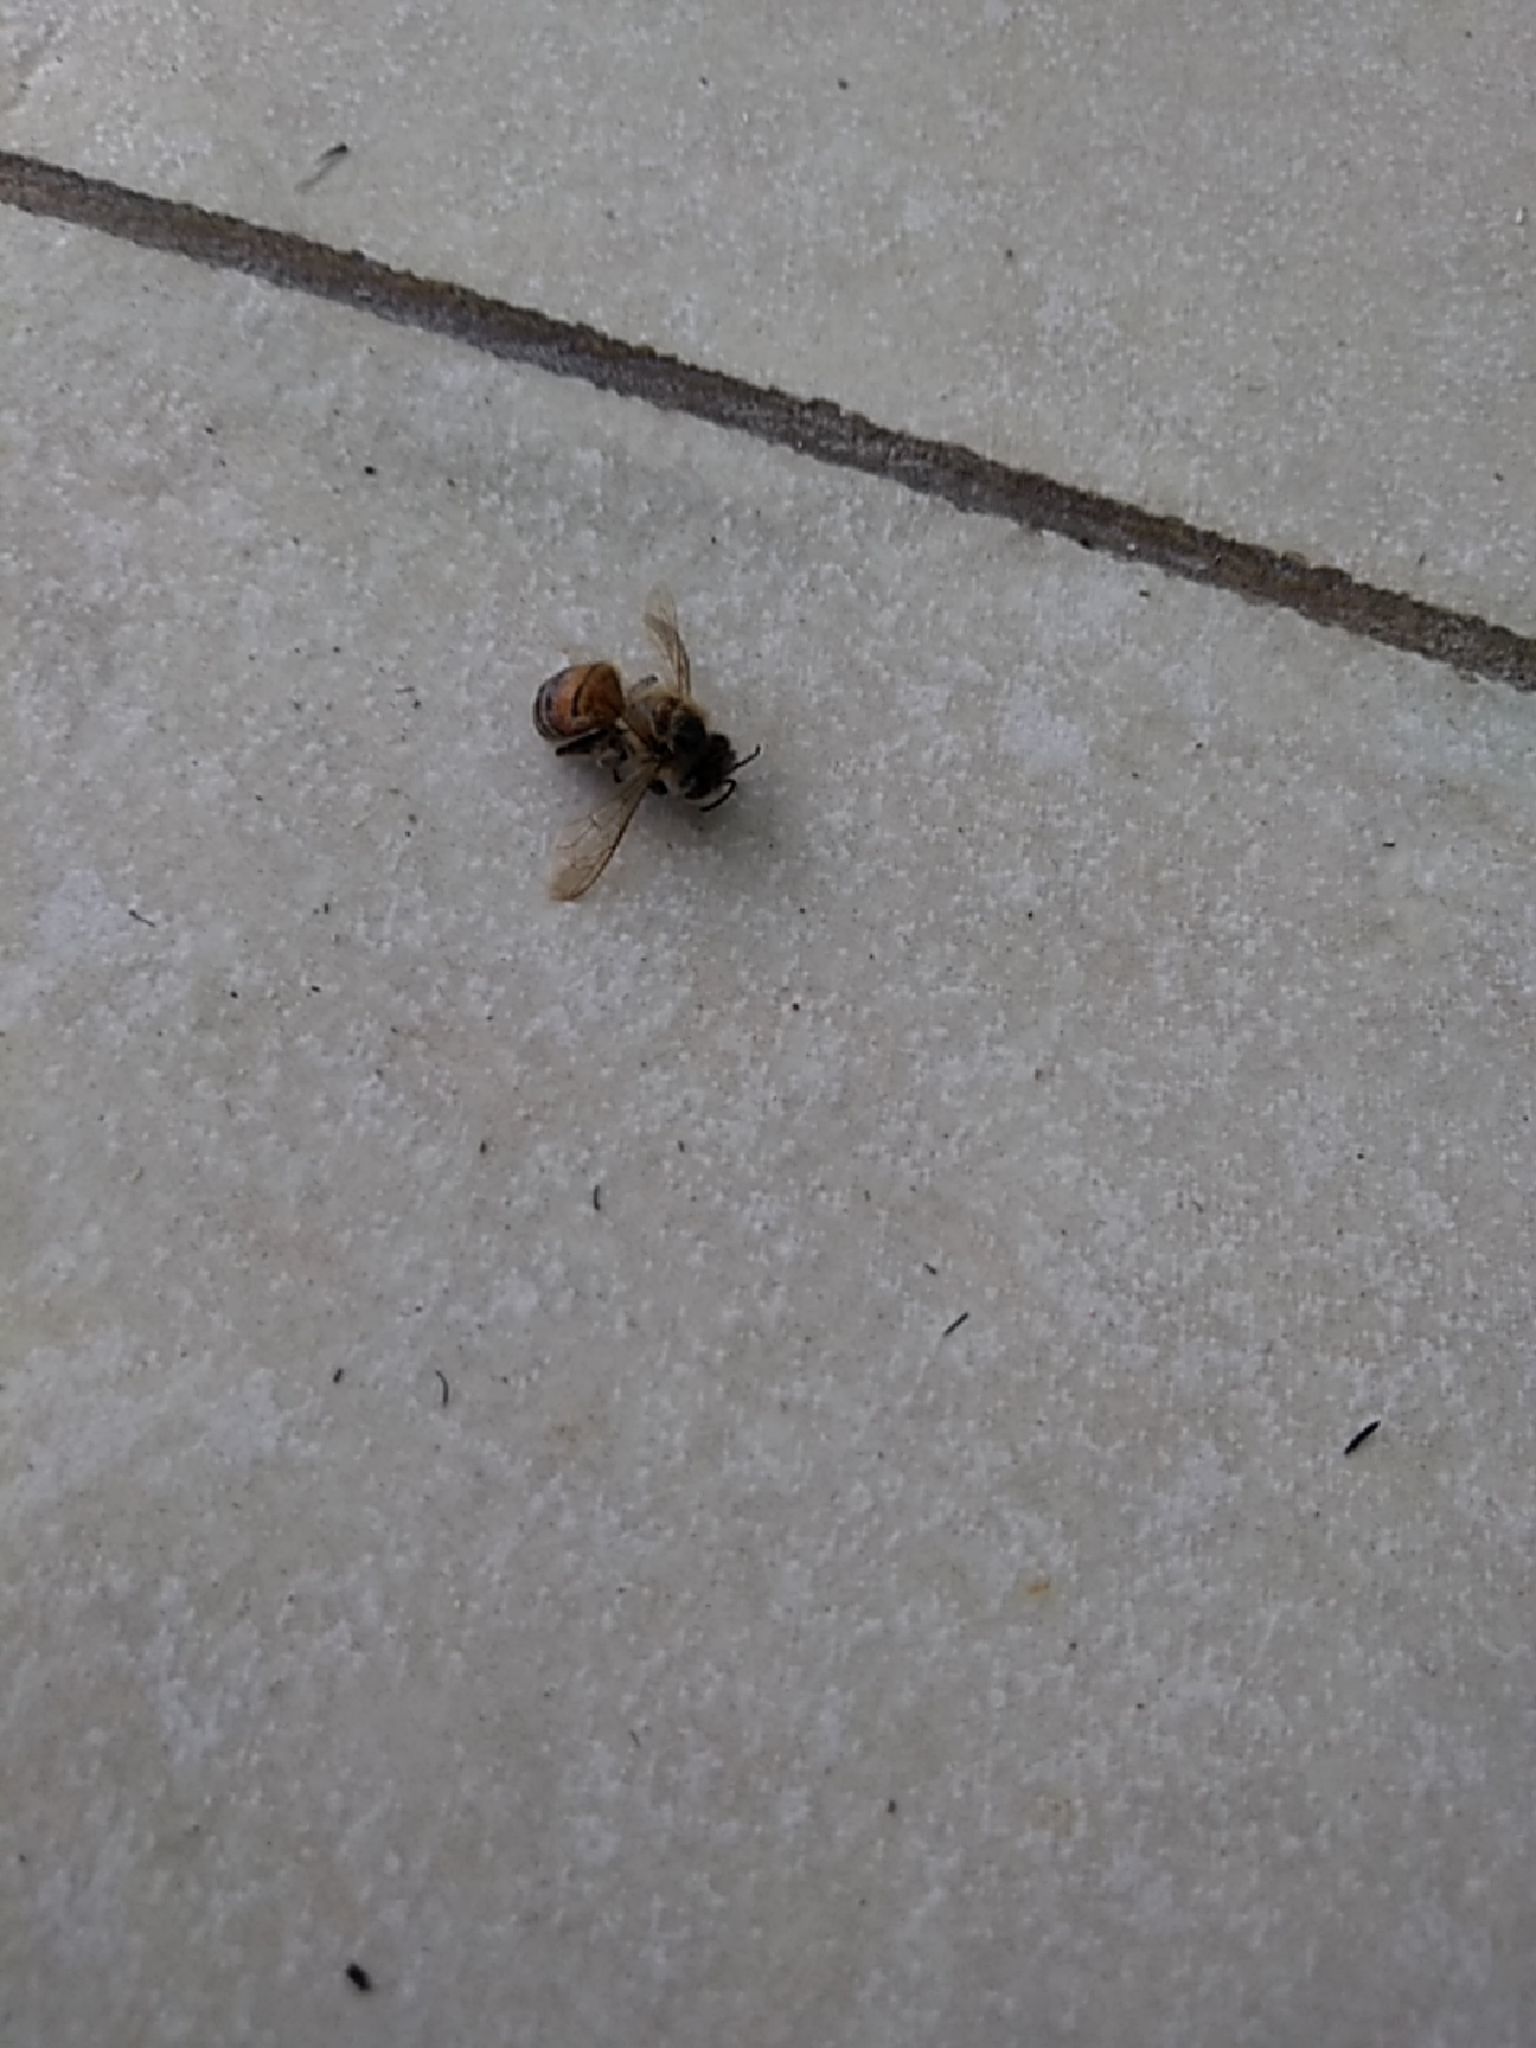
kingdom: Animalia
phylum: Arthropoda
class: Insecta
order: Hymenoptera
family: Apidae
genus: Apis
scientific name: Apis mellifera
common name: Honey bee
